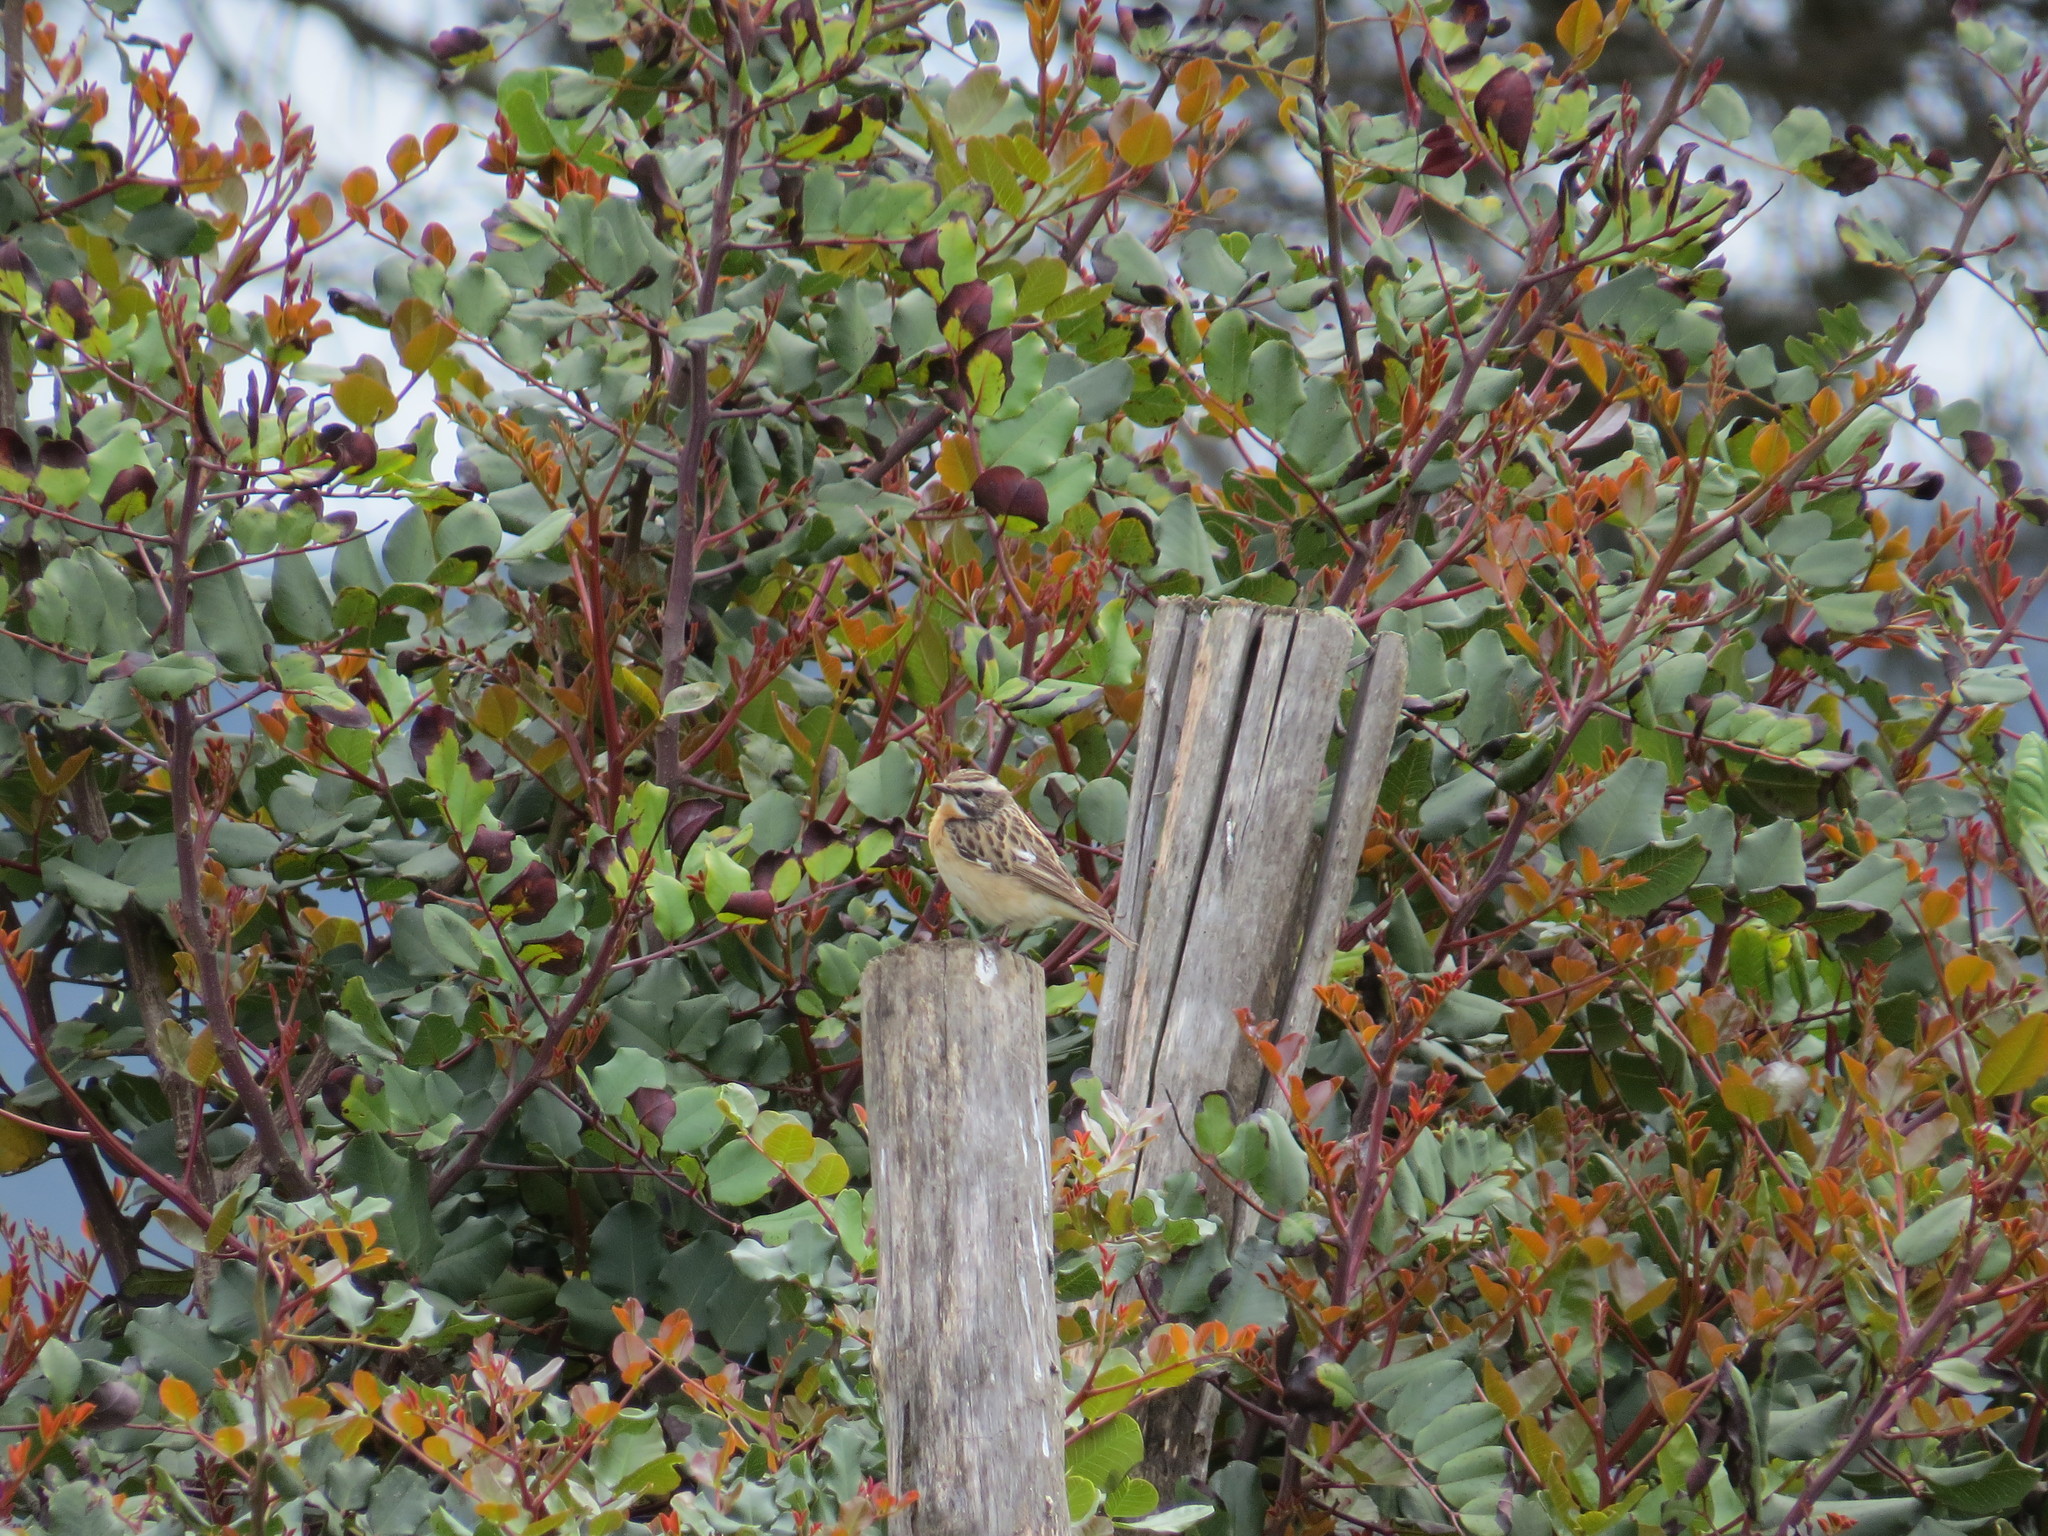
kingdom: Animalia
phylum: Chordata
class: Aves
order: Passeriformes
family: Muscicapidae
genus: Saxicola
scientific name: Saxicola rubetra
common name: Whinchat
